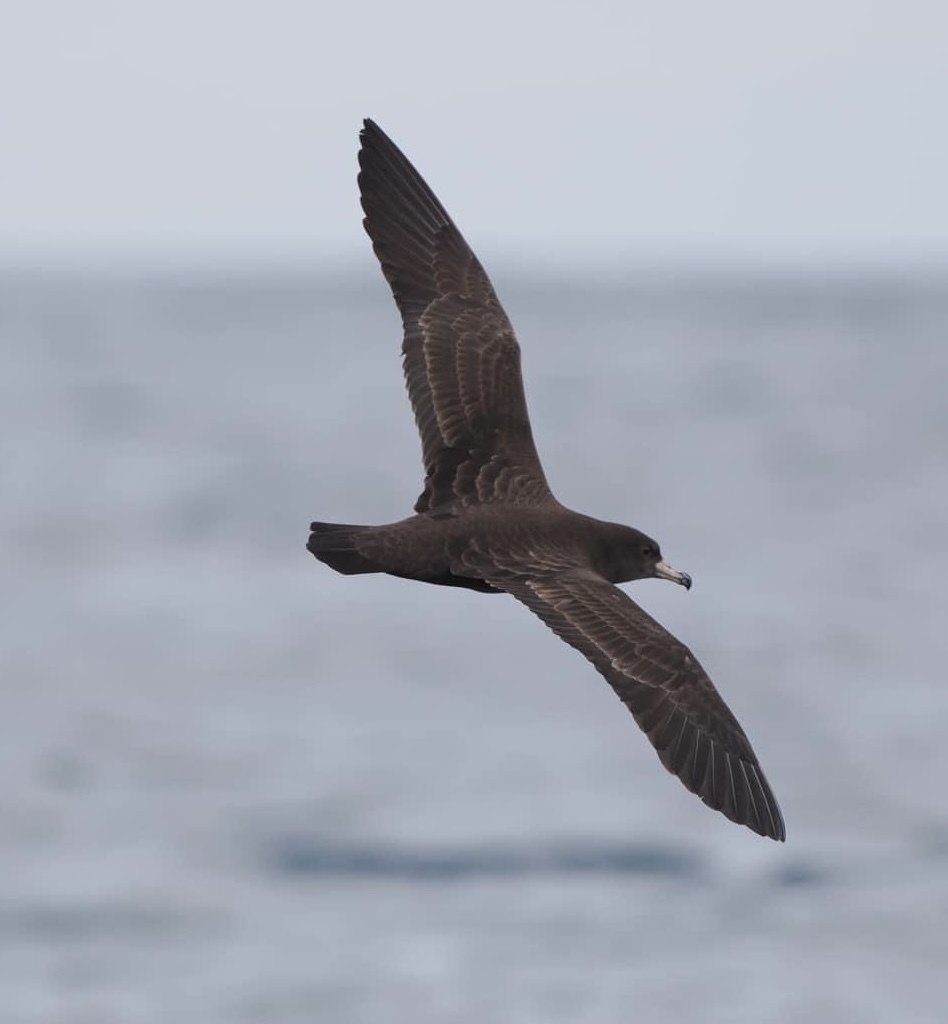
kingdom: Animalia
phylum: Chordata
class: Aves
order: Procellariiformes
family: Procellariidae
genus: Puffinus
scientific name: Puffinus carneipes
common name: Flesh-footed shearwater
